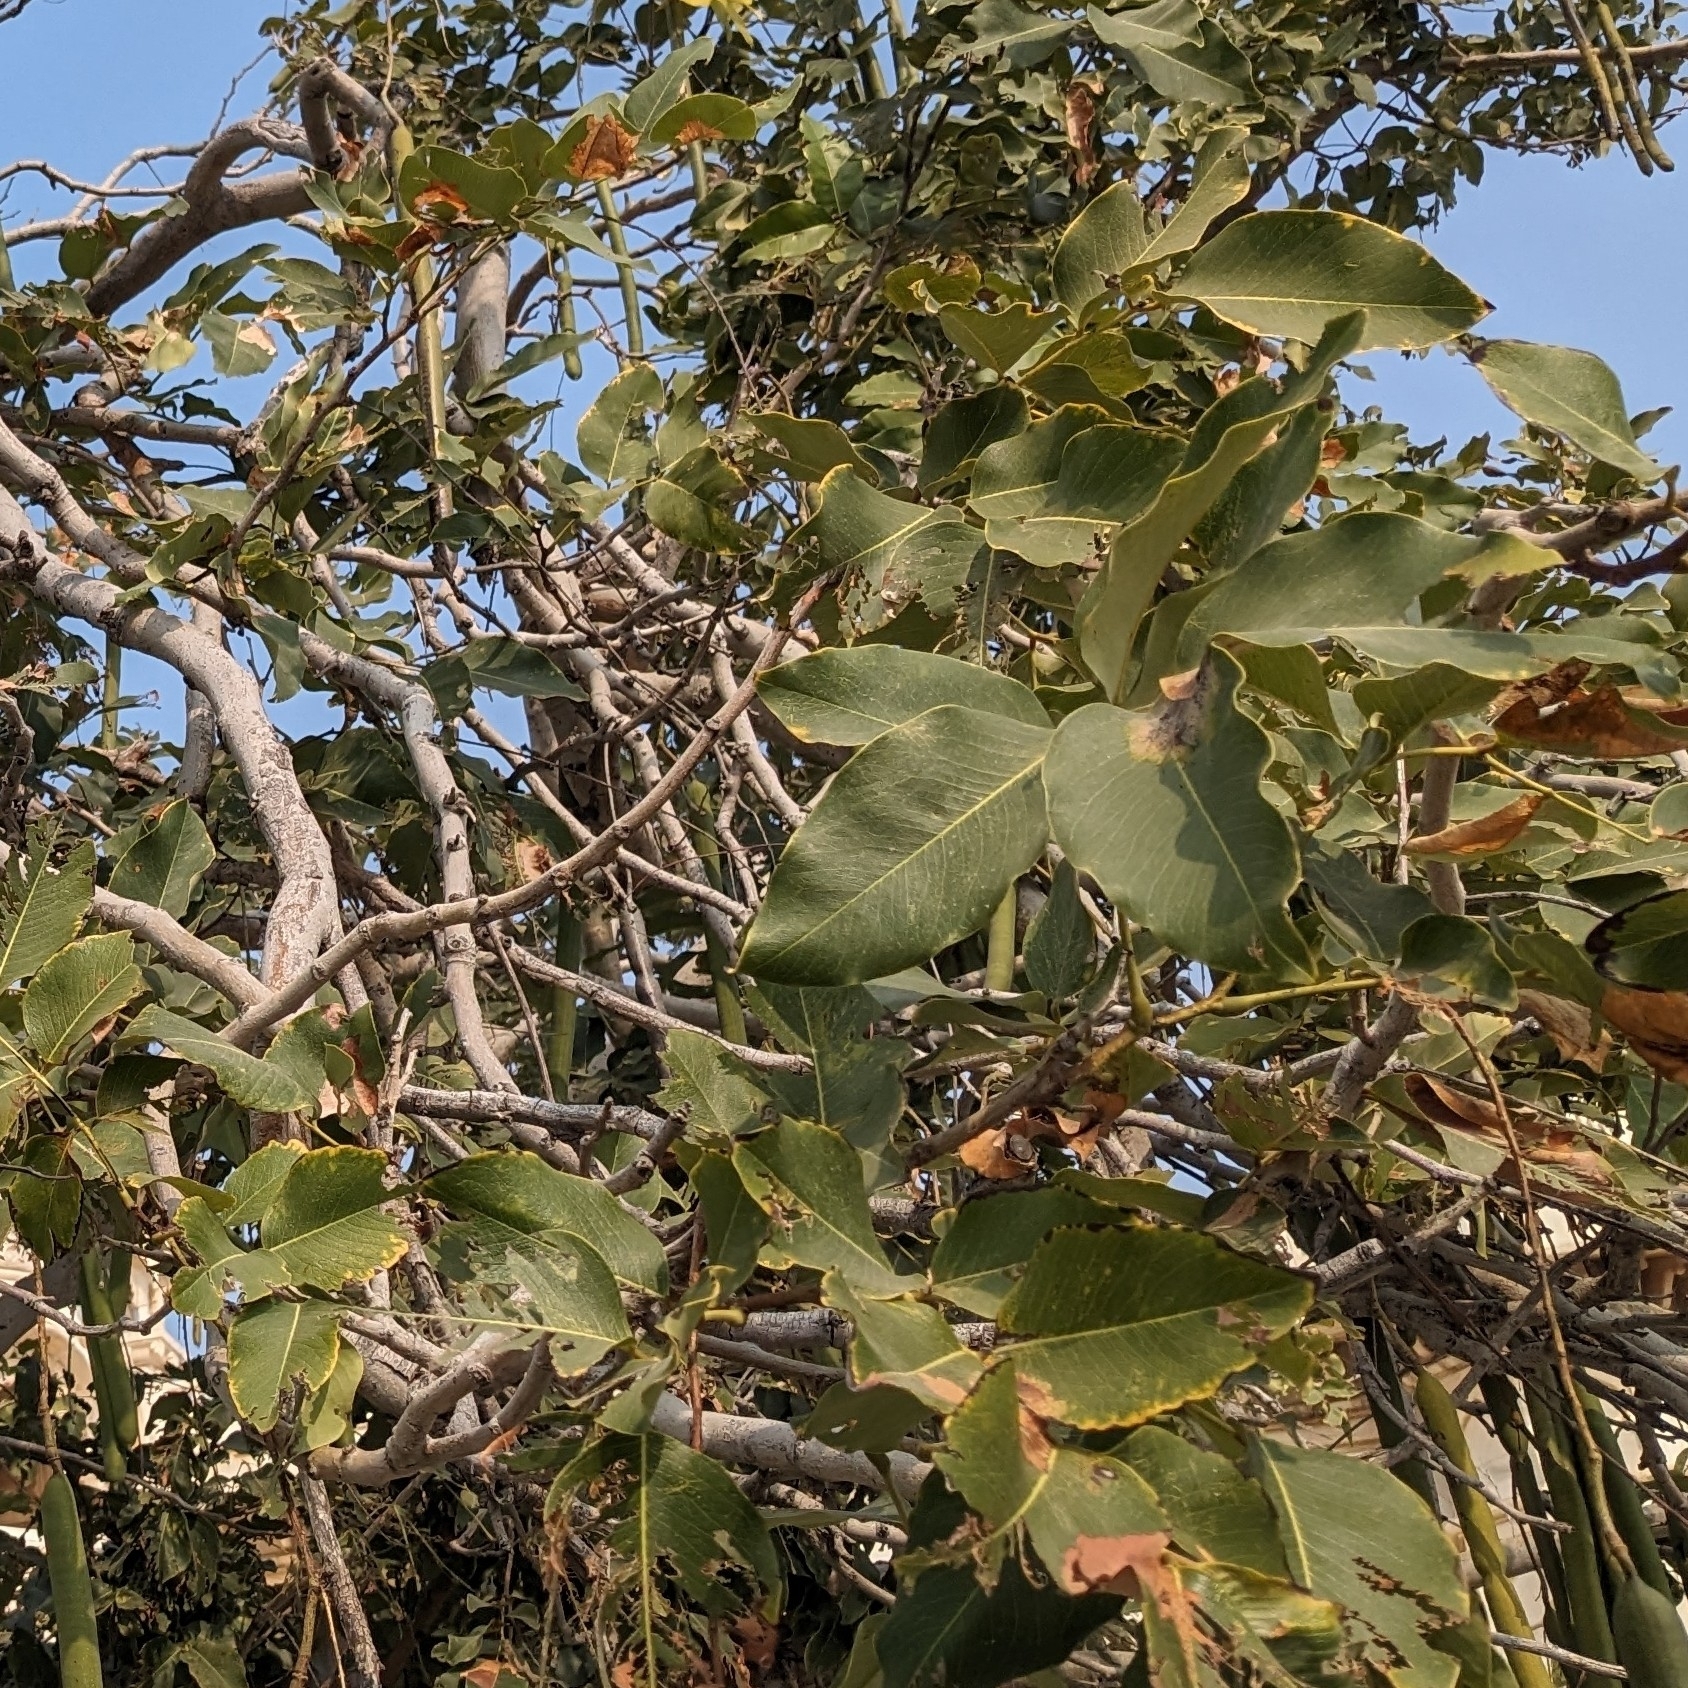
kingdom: Plantae
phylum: Tracheophyta
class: Magnoliopsida
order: Fabales
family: Fabaceae
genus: Cassia
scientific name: Cassia fistula
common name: Golden shower
